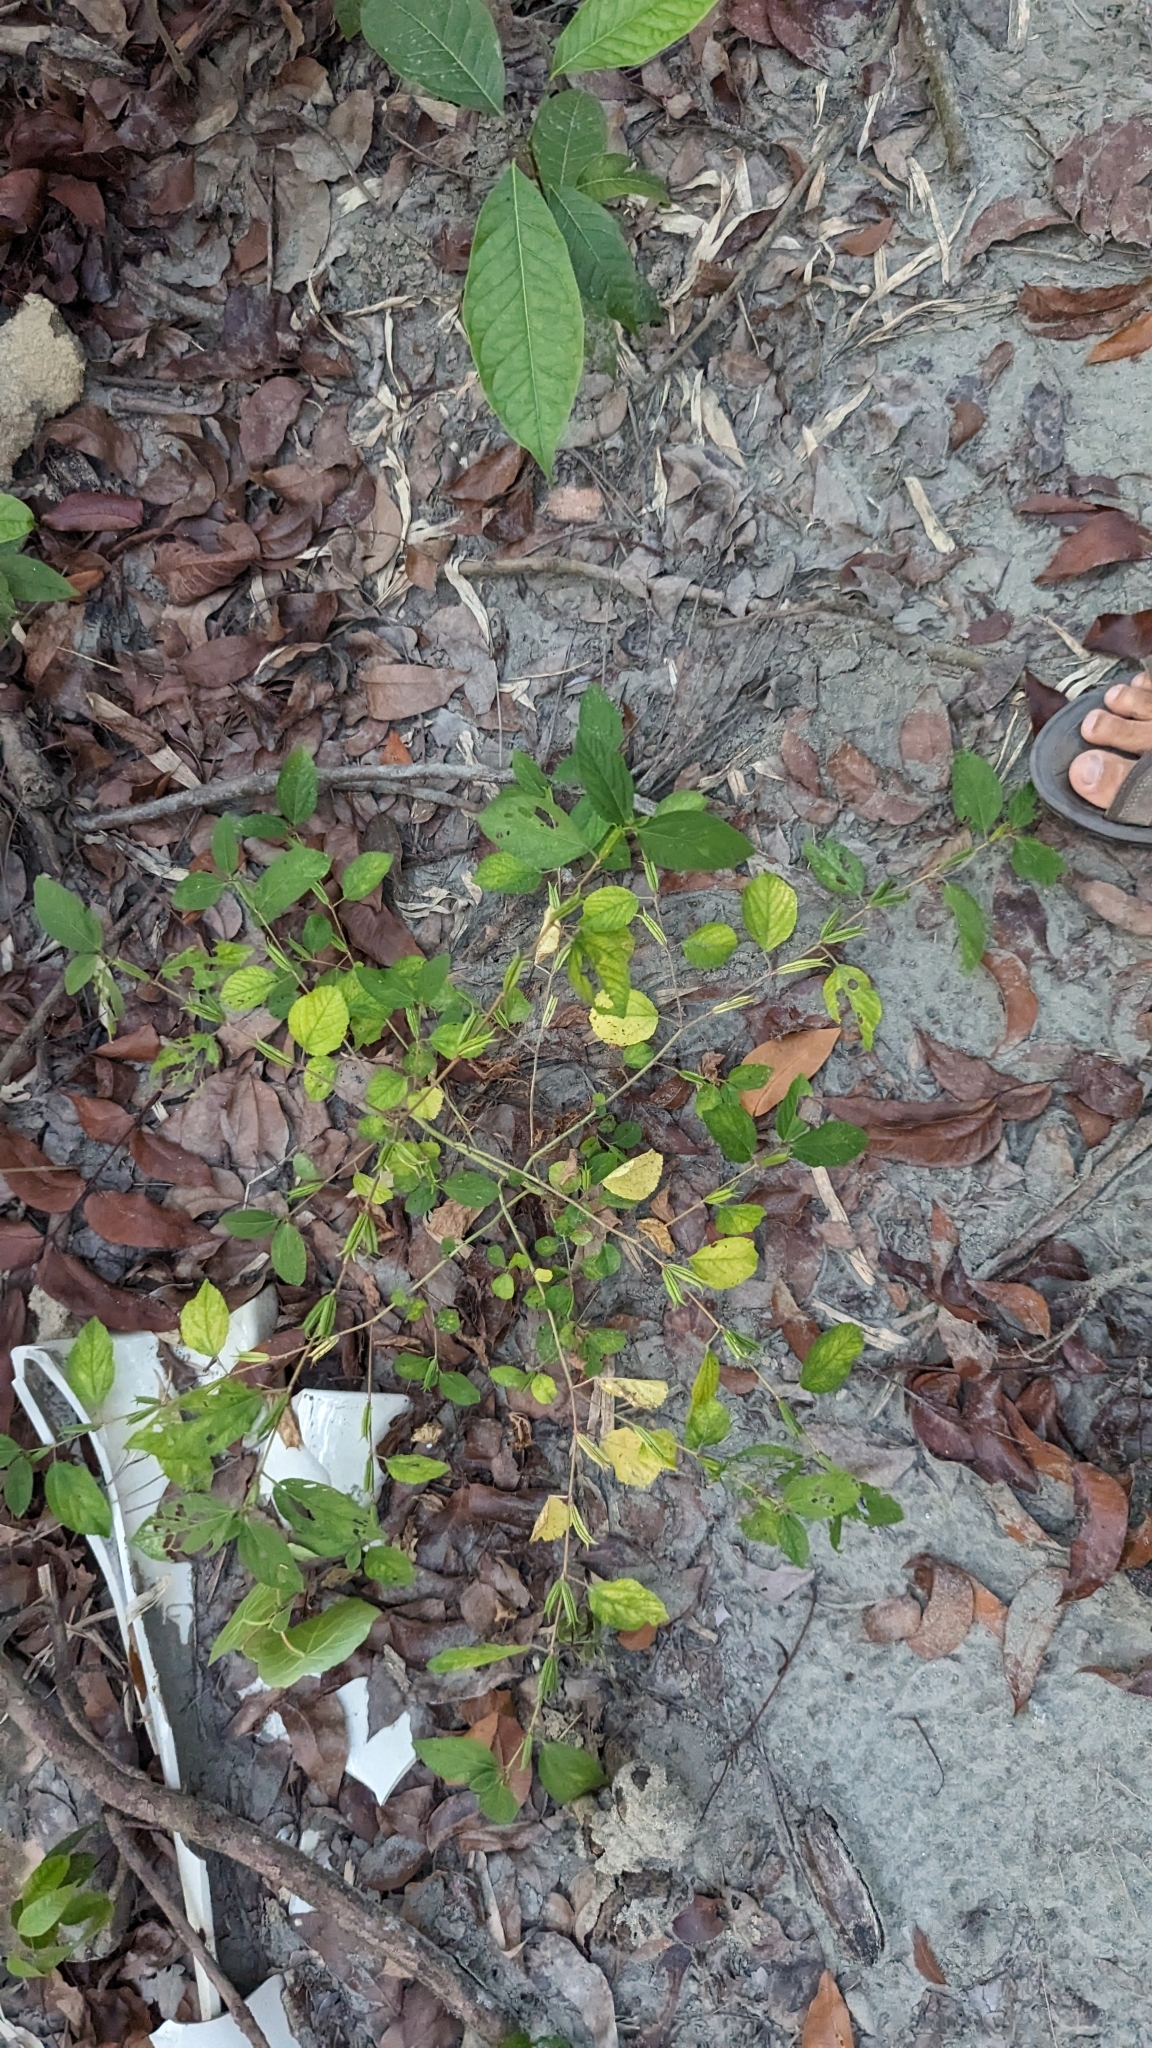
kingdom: Plantae
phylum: Tracheophyta
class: Magnoliopsida
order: Malvales
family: Malvaceae
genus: Corchorus
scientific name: Corchorus aestuans
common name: Jute
